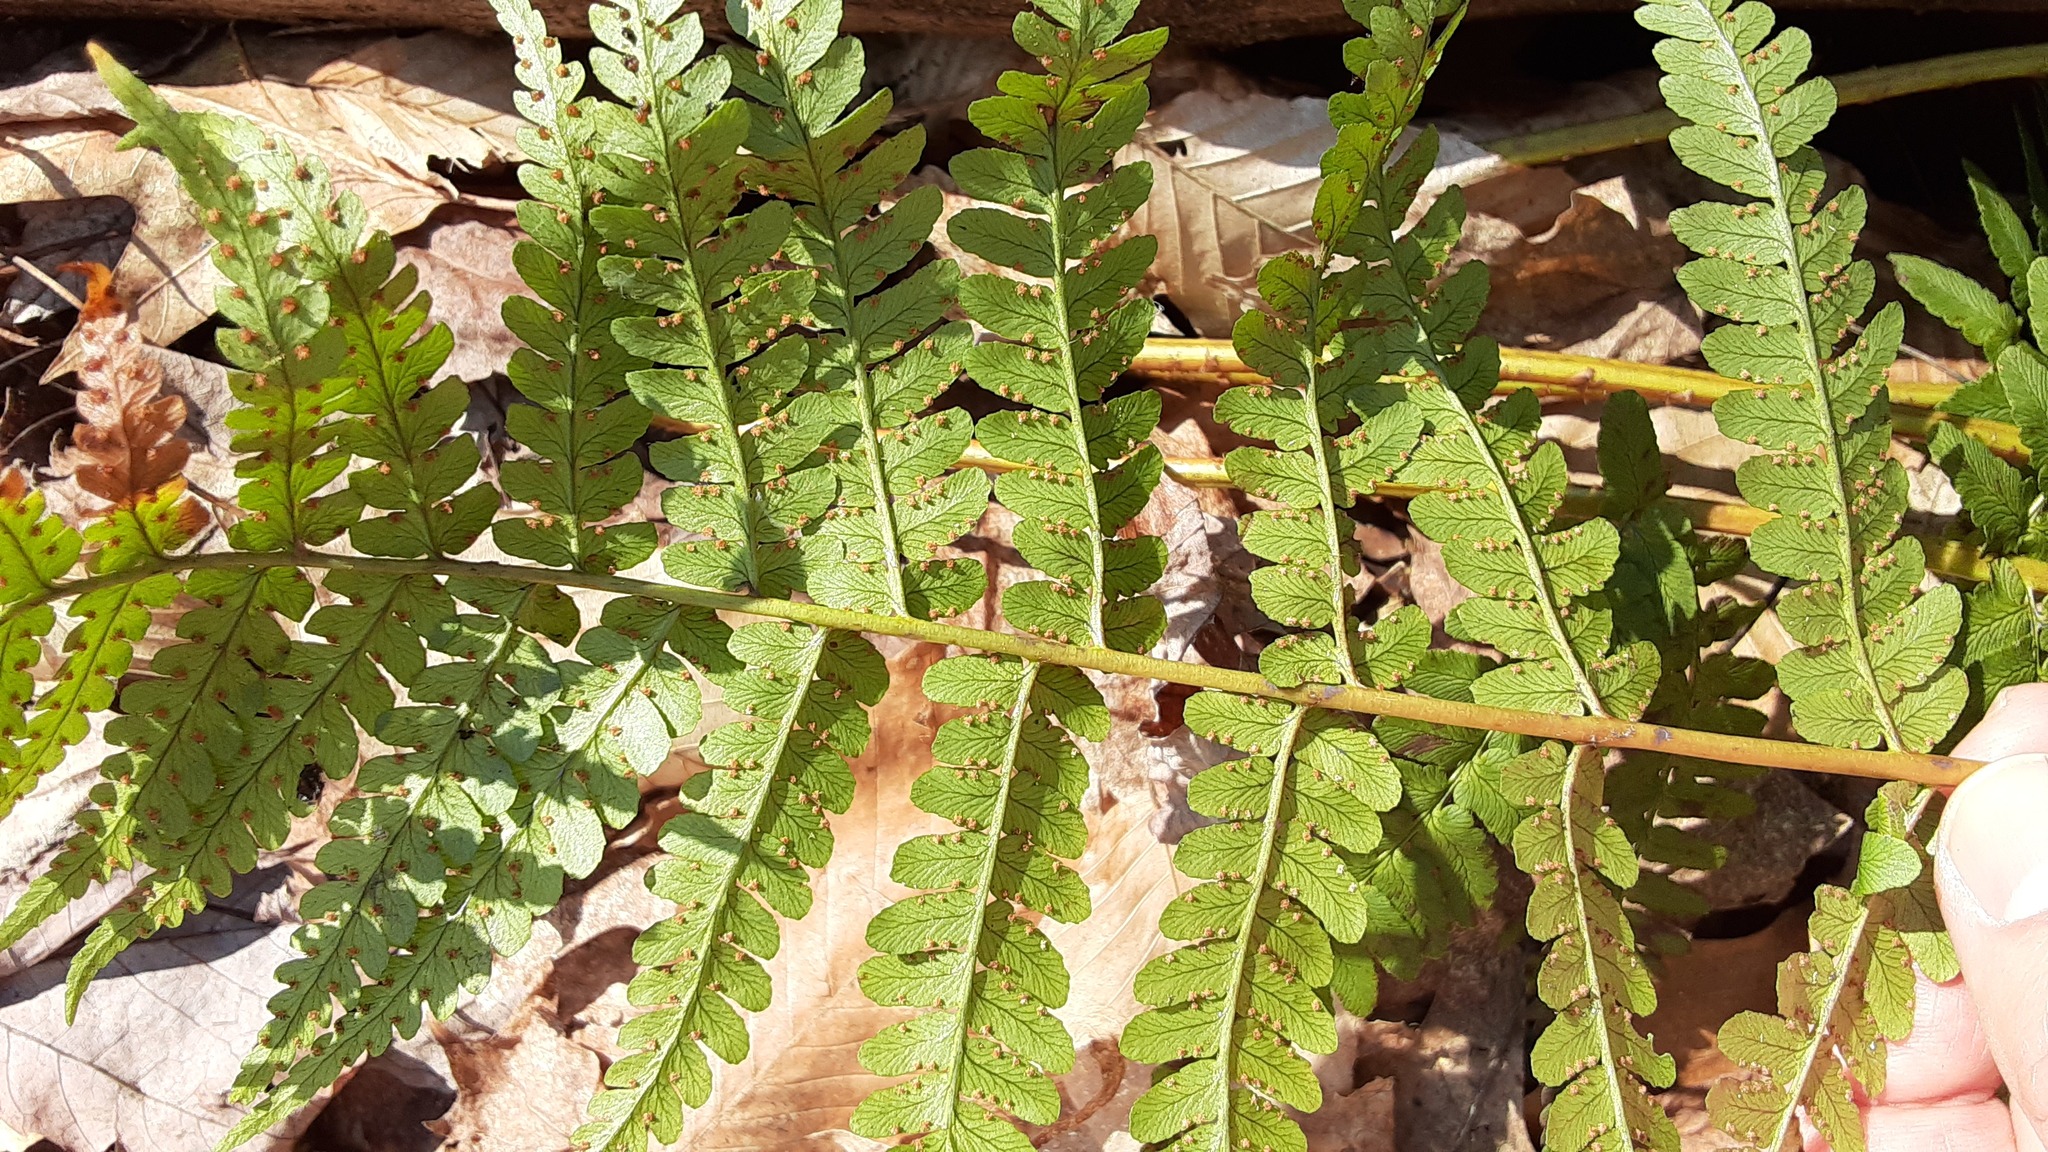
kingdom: Plantae
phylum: Tracheophyta
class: Polypodiopsida
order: Polypodiales
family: Dryopteridaceae
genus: Dryopteris
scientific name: Dryopteris marginalis
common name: Marginal wood fern
